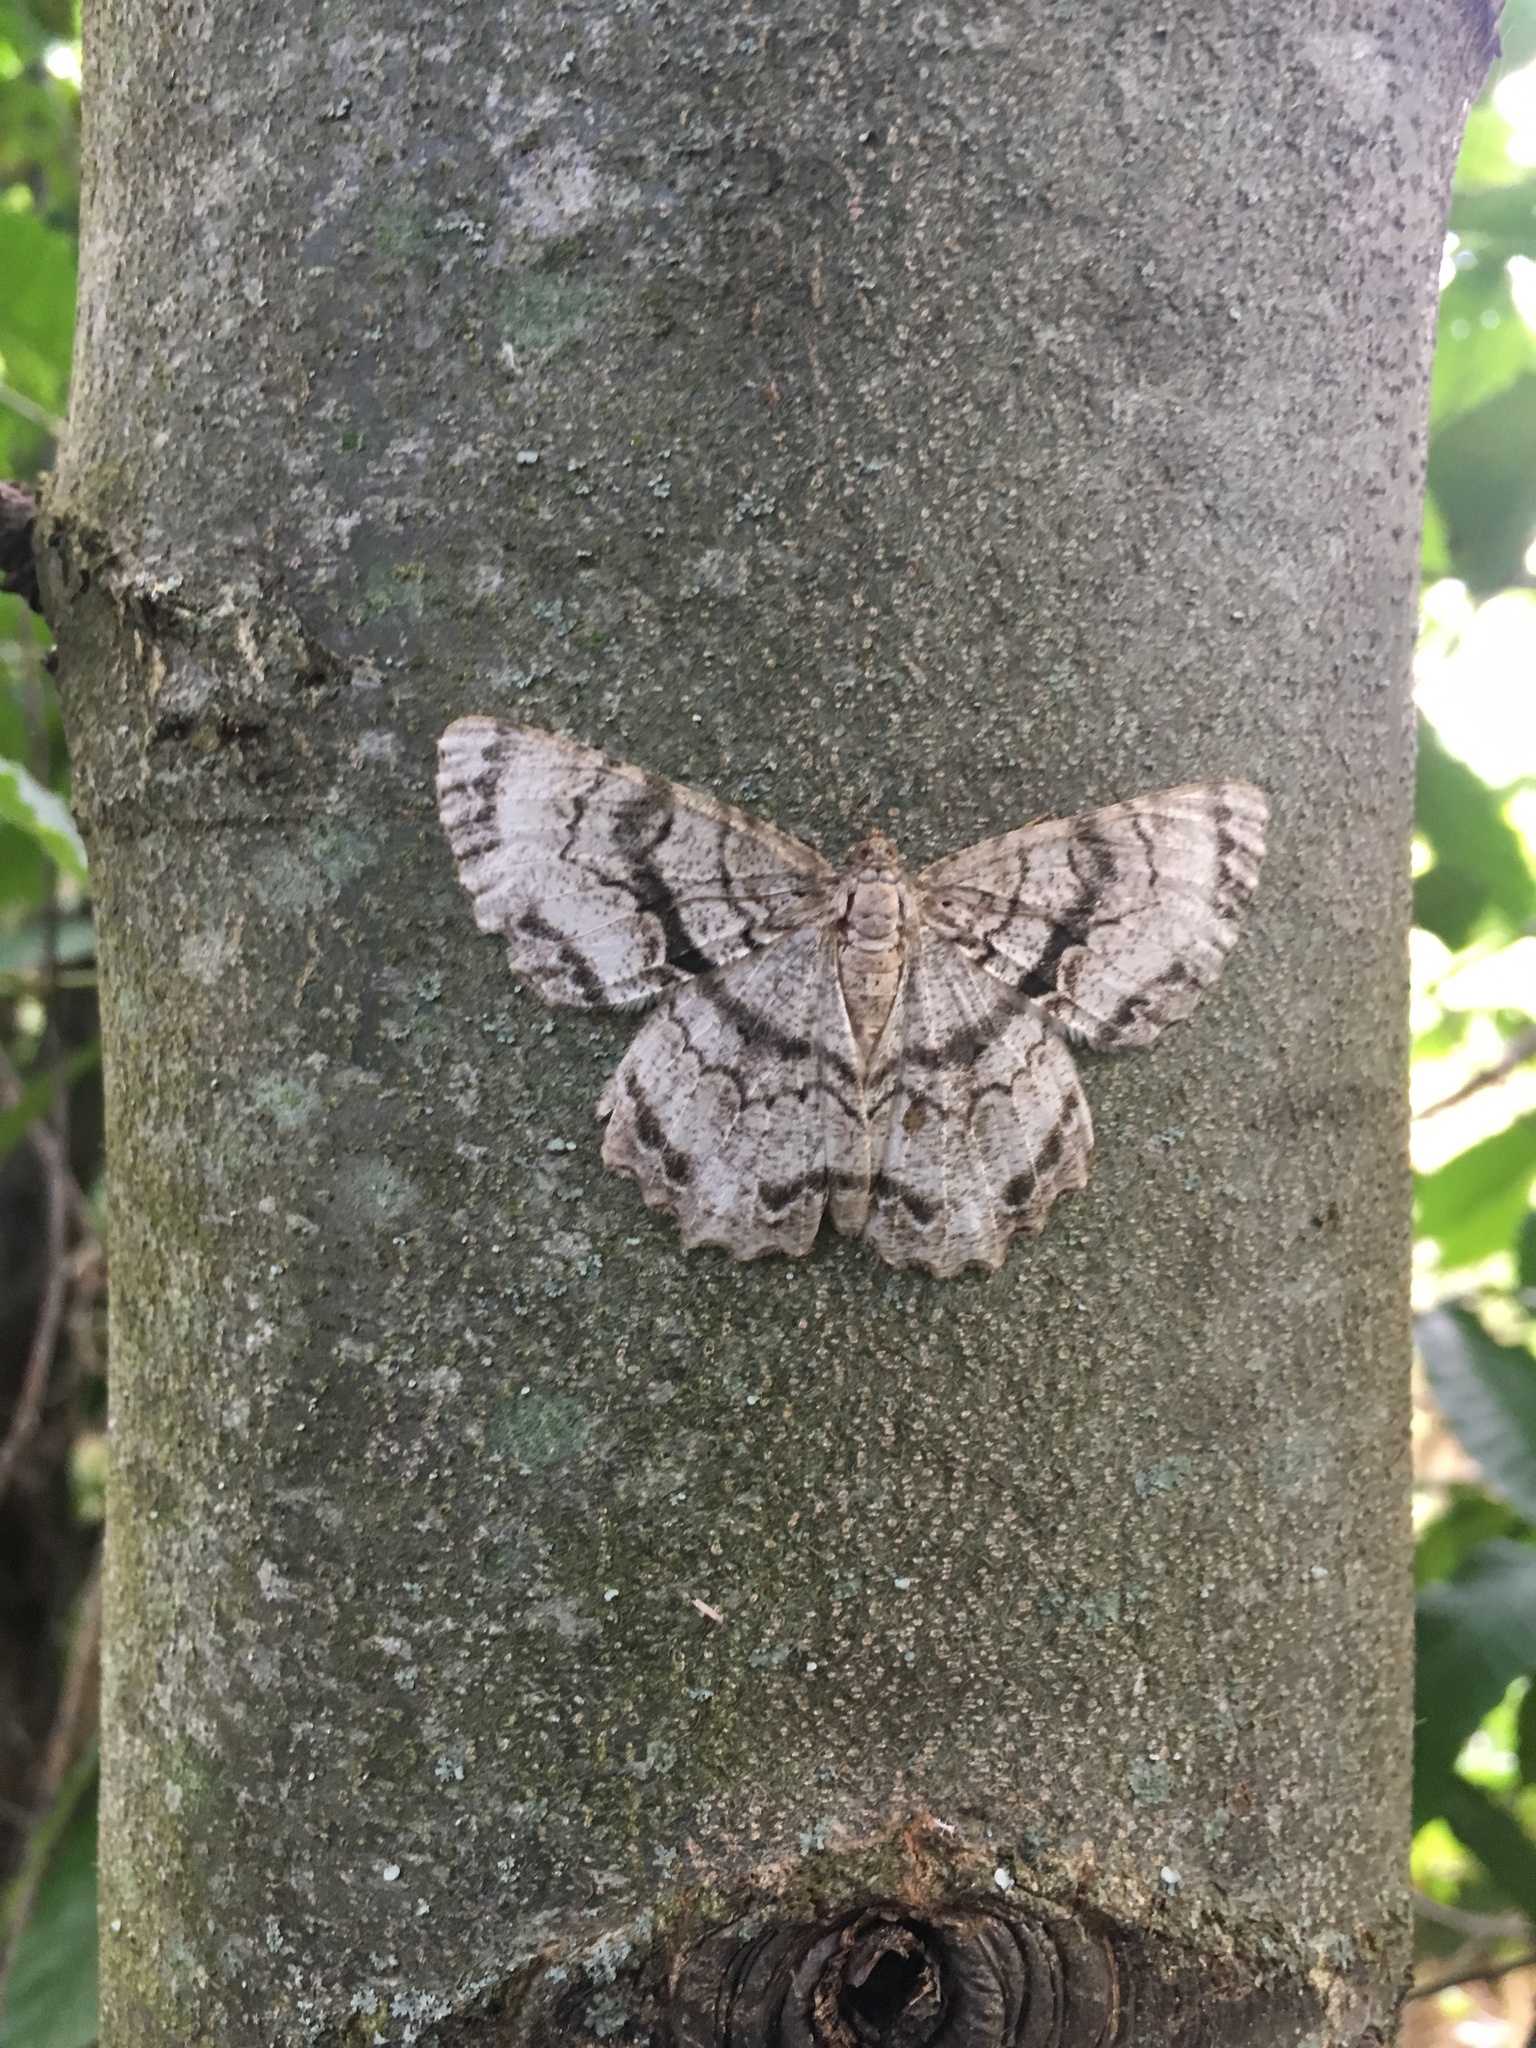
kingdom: Animalia
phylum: Arthropoda
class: Insecta
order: Lepidoptera
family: Geometridae
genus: Epimecis
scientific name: Epimecis hortaria
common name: Tulip-tree beauty
